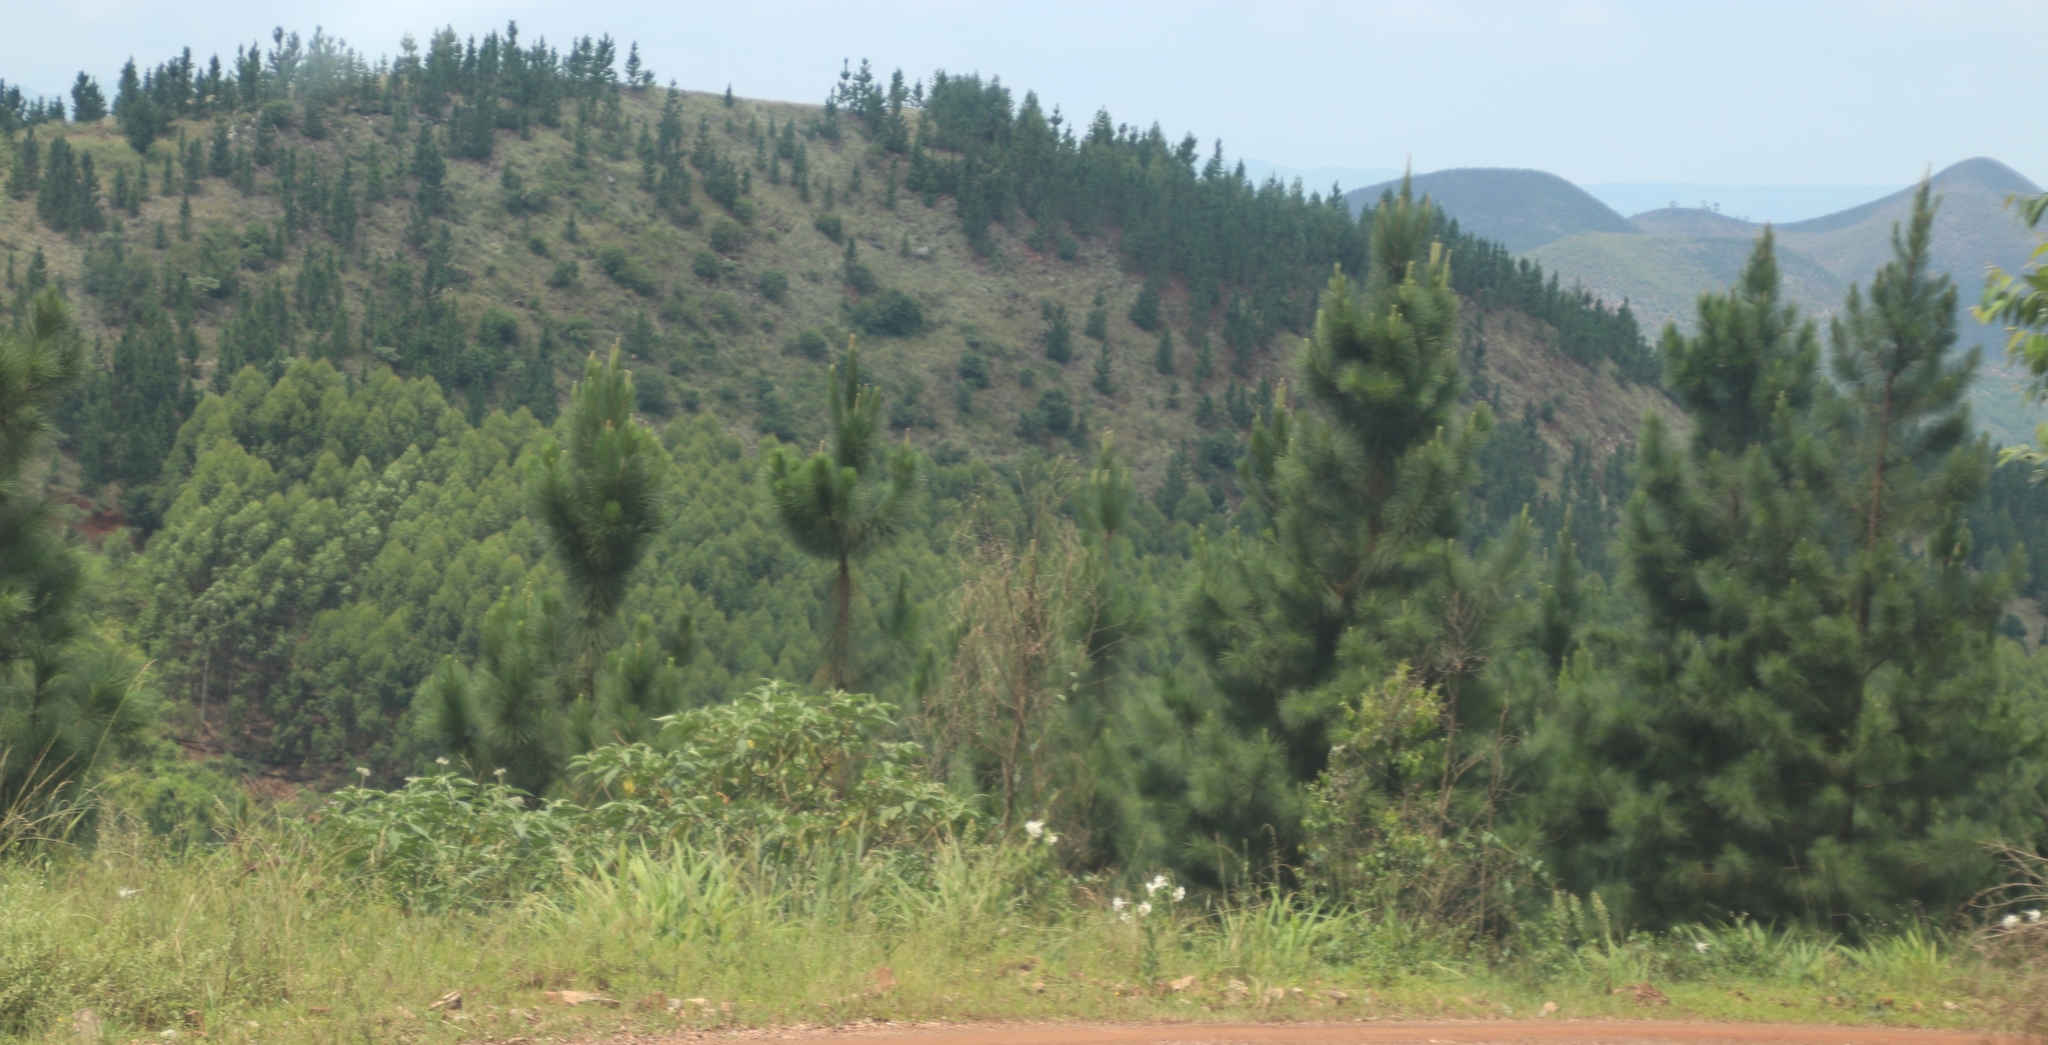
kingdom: Plantae
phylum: Tracheophyta
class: Liliopsida
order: Liliales
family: Liliaceae
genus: Lilium
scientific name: Lilium formosanum
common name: Formosa lily
